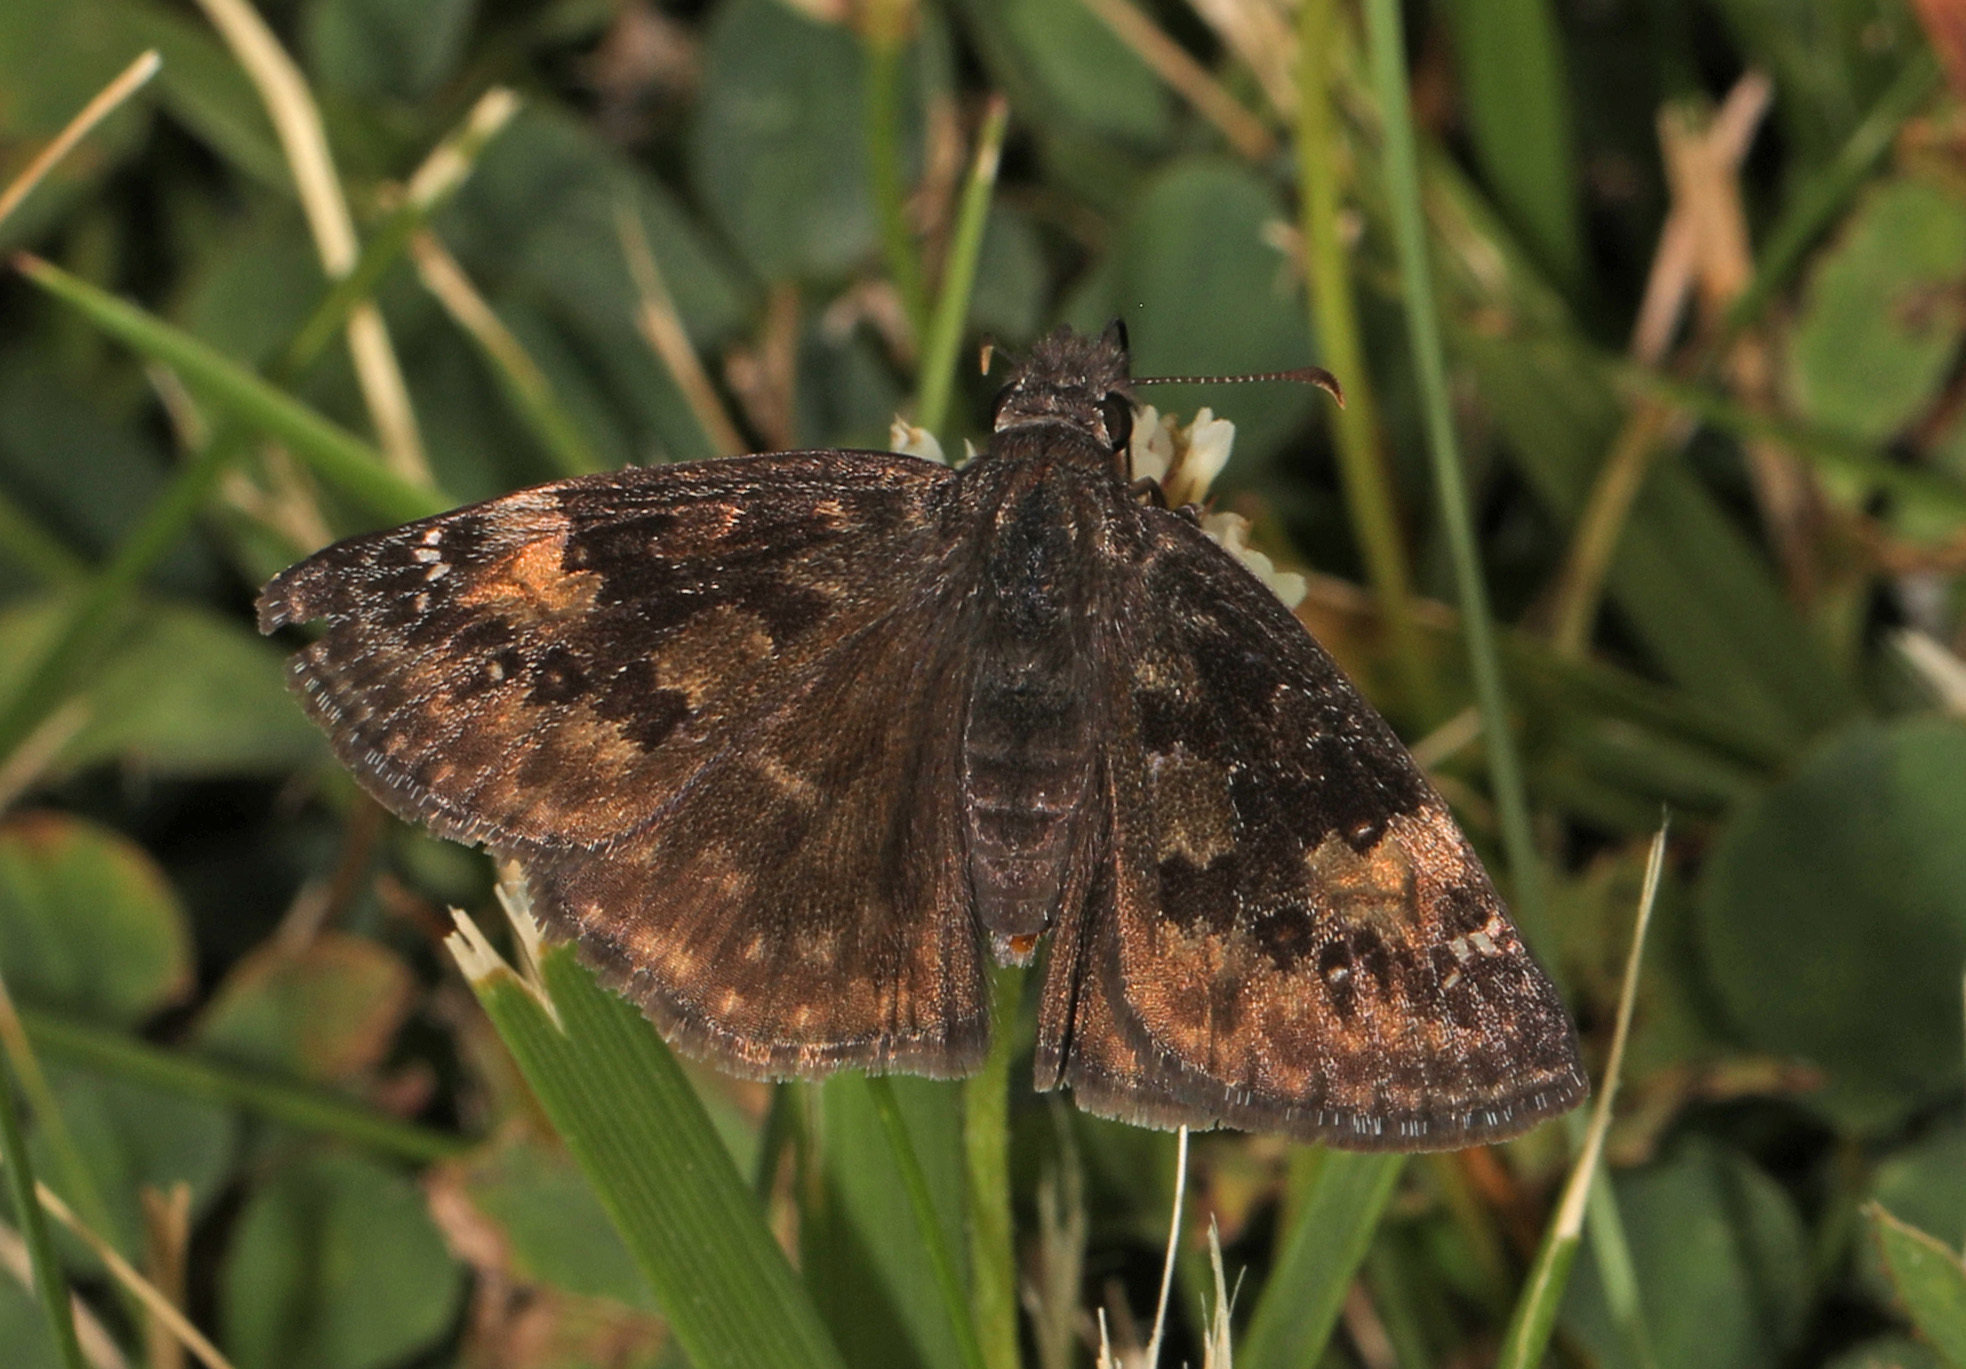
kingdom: Animalia
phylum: Arthropoda
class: Insecta
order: Lepidoptera
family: Hesperiidae
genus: Erynnis
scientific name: Erynnis baptisiae
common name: Wild indigo duskywing
